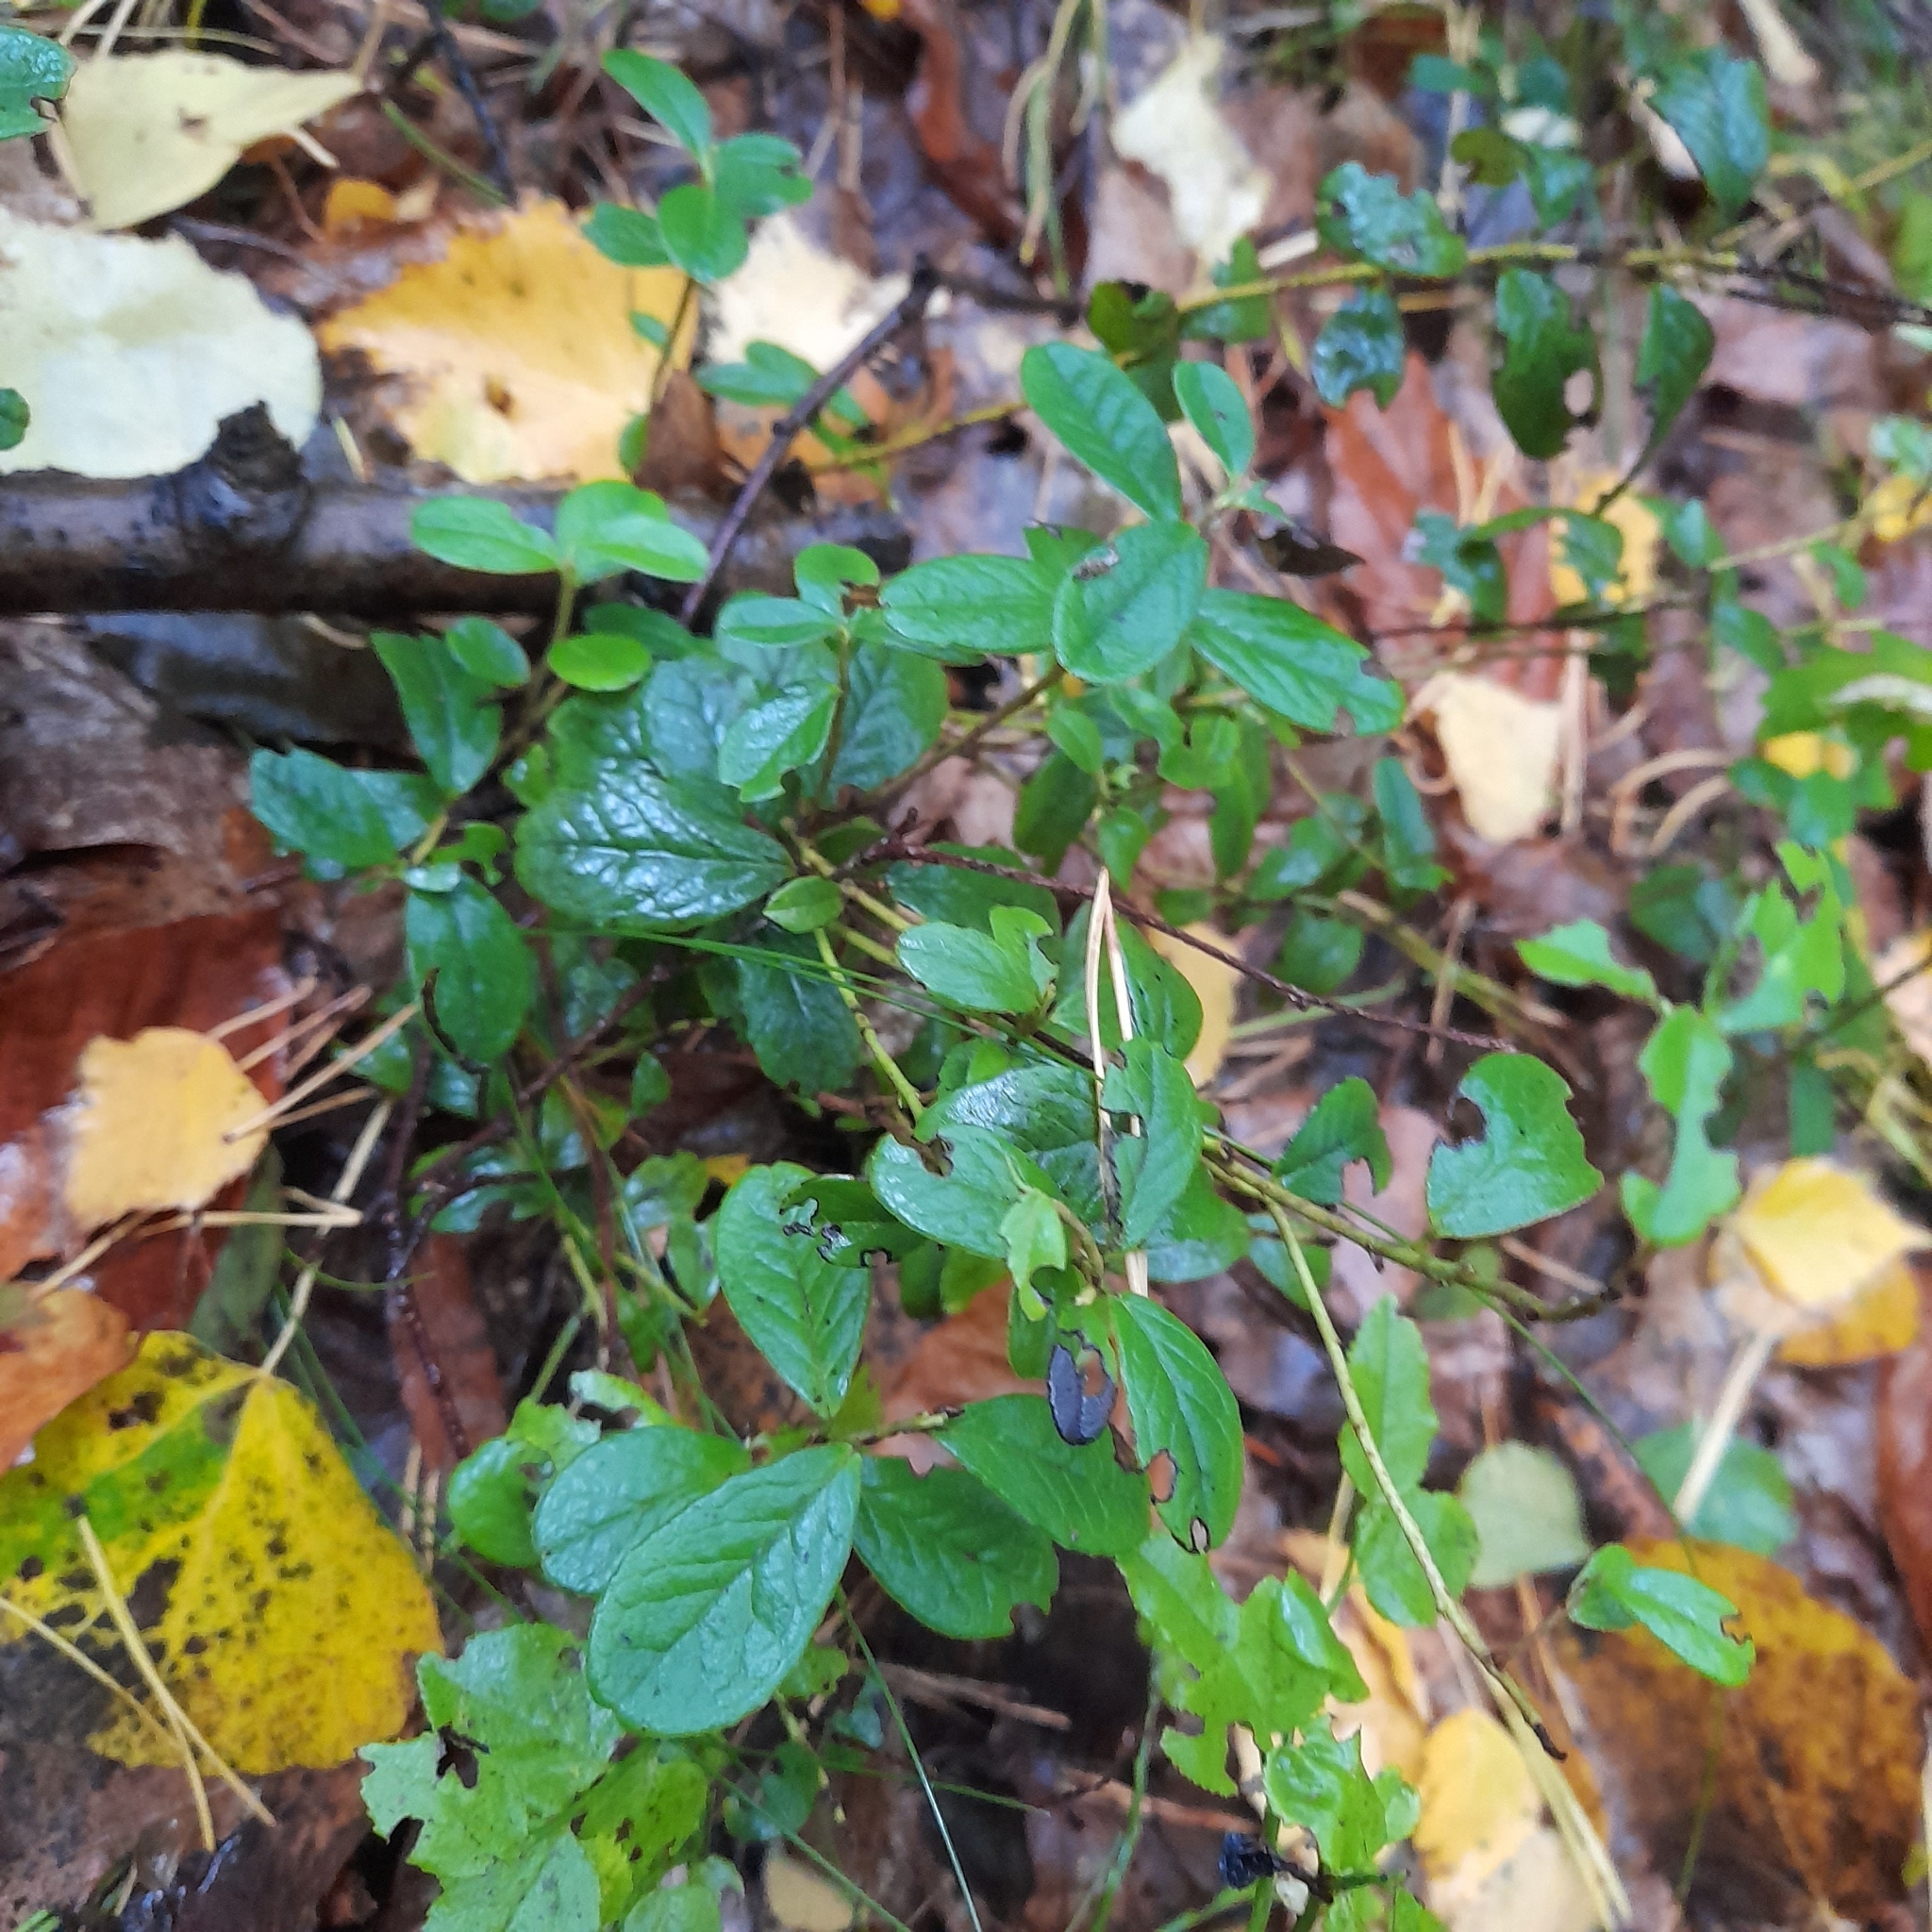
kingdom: Plantae
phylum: Tracheophyta
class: Magnoliopsida
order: Ericales
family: Ericaceae
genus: Vaccinium
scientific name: Vaccinium vitis-idaea
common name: Cowberry
